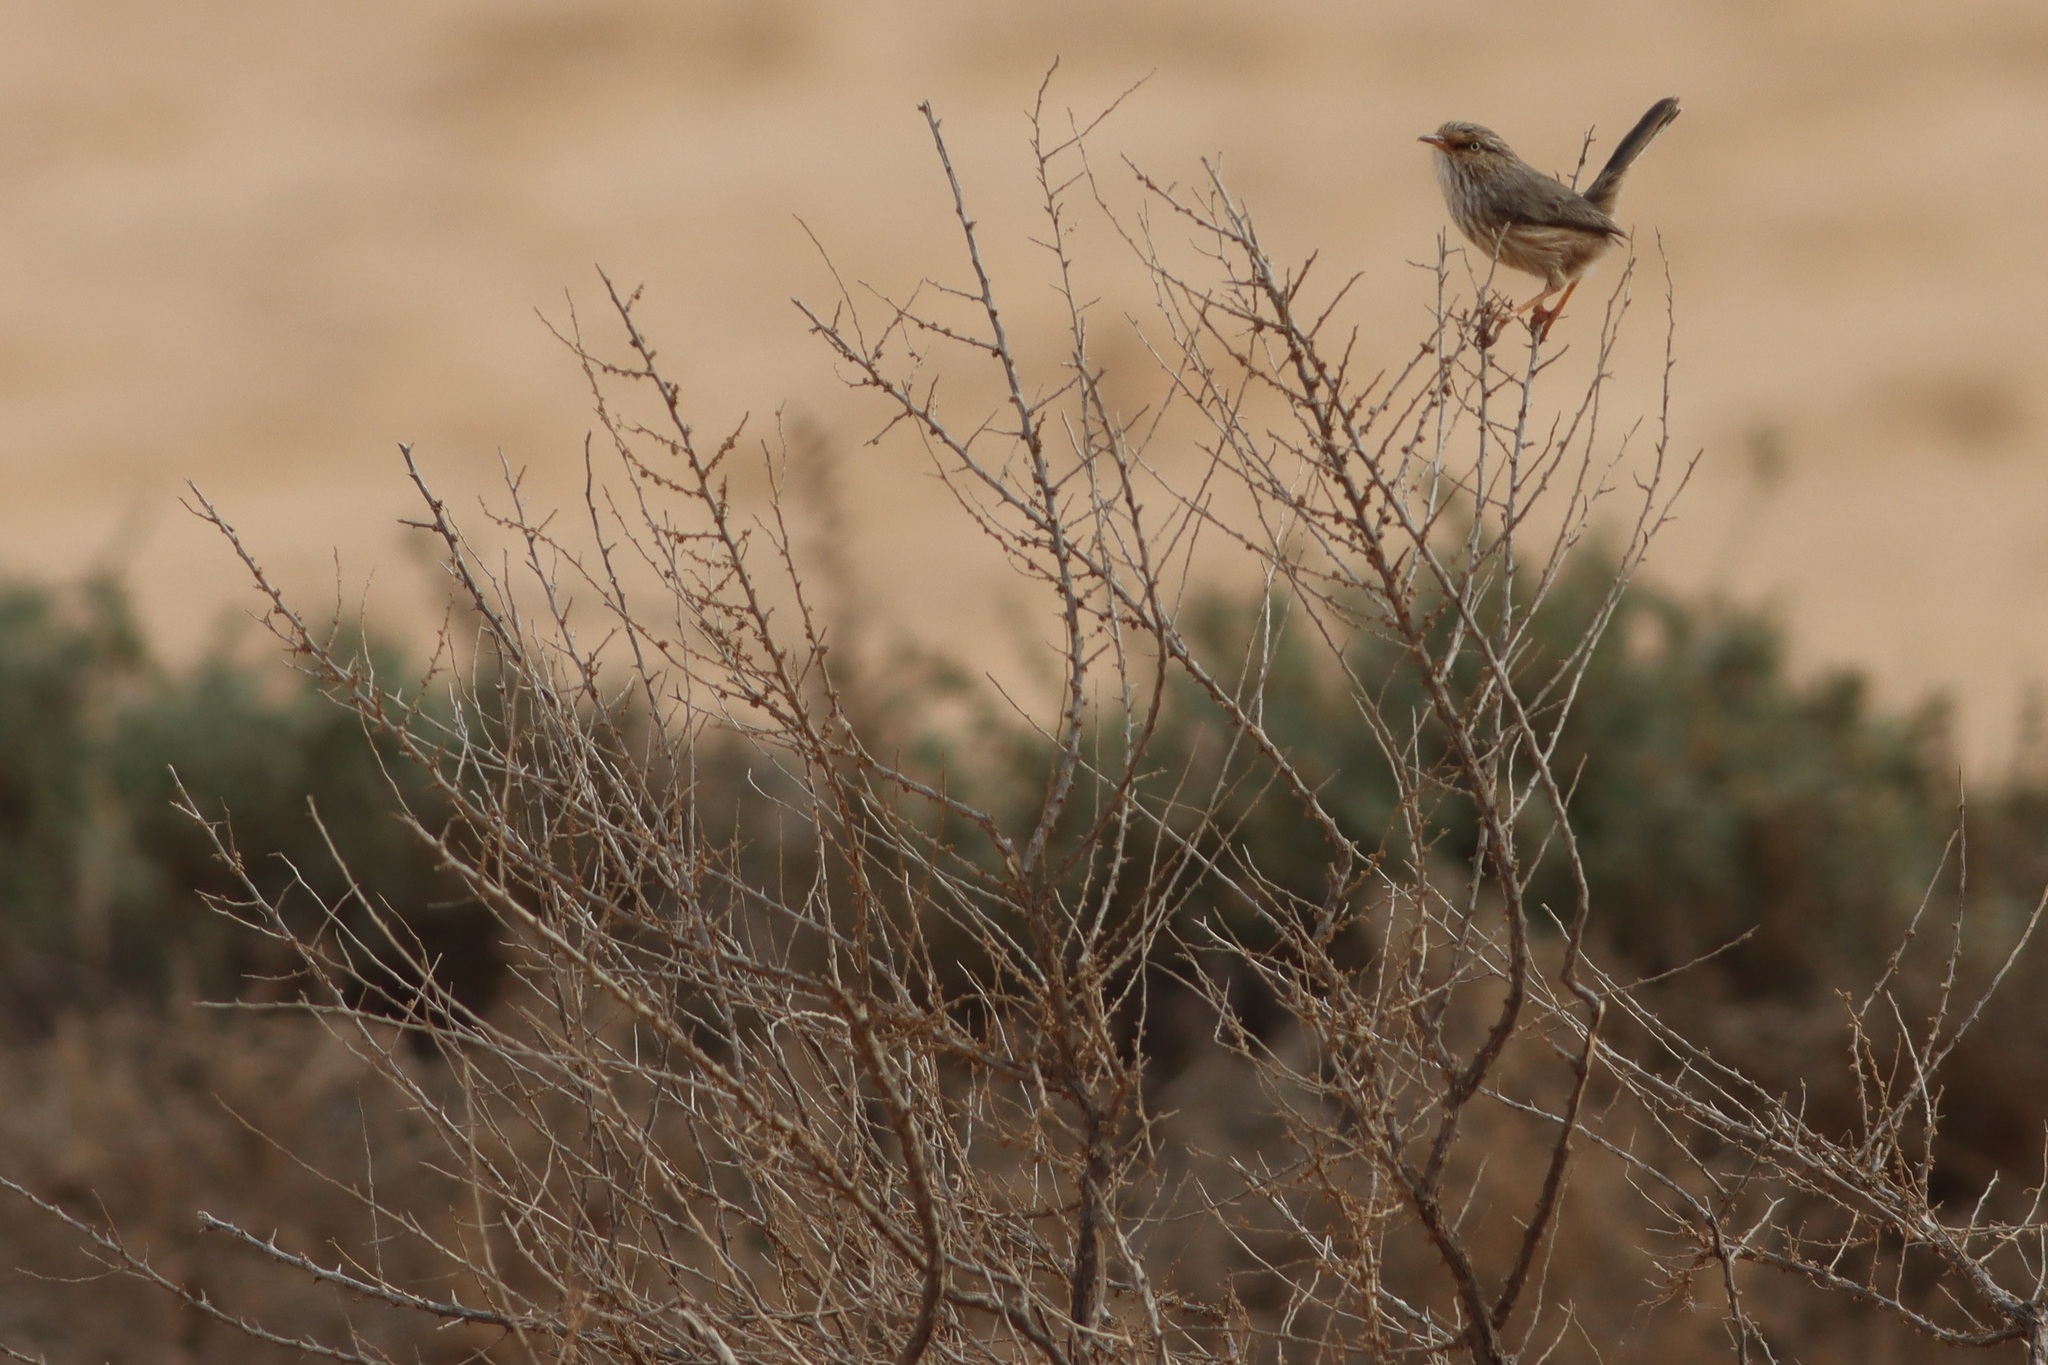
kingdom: Animalia
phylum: Chordata
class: Aves
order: Passeriformes
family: Scotocercidae
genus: Scotocerca
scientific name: Scotocerca inquieta
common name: Scrub warbler
